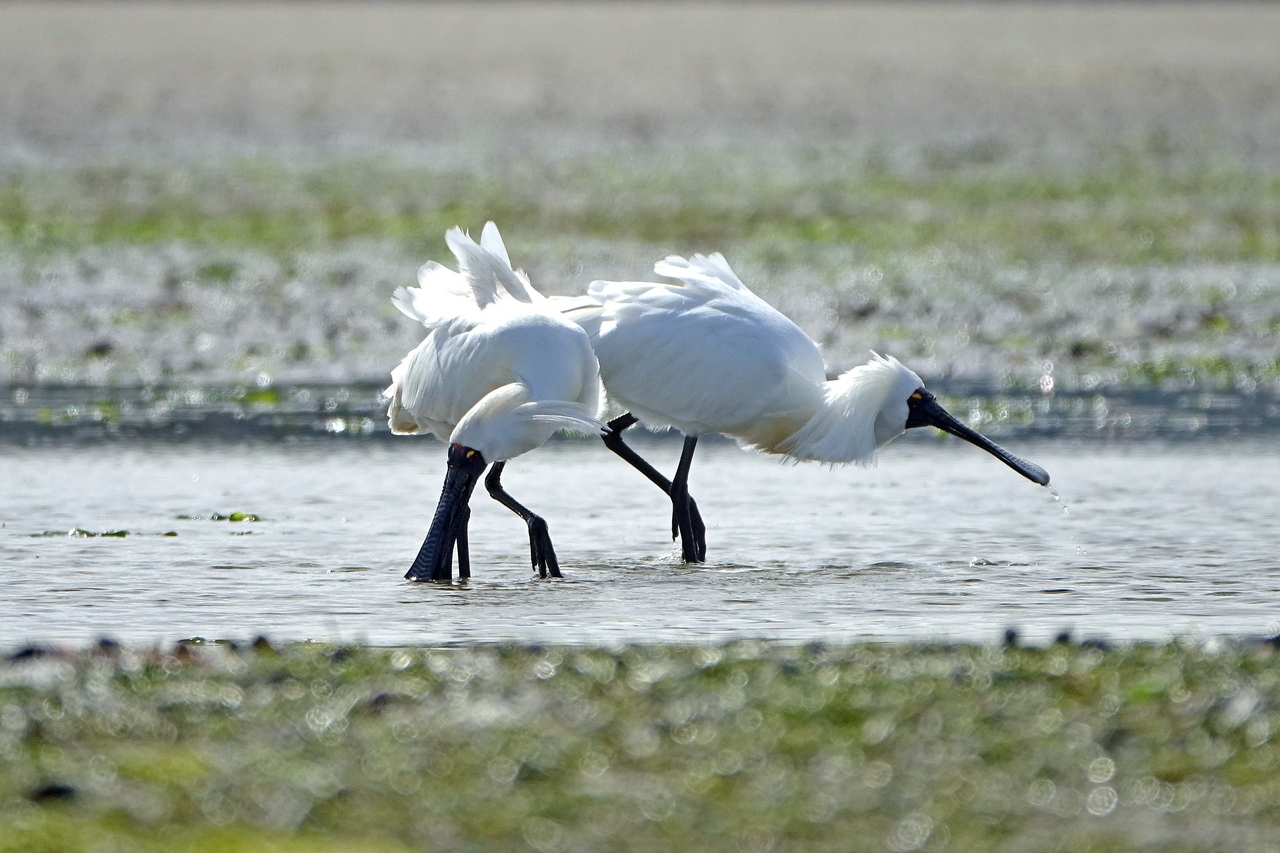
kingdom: Animalia
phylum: Chordata
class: Aves
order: Pelecaniformes
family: Threskiornithidae
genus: Platalea
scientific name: Platalea regia
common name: Royal spoonbill
